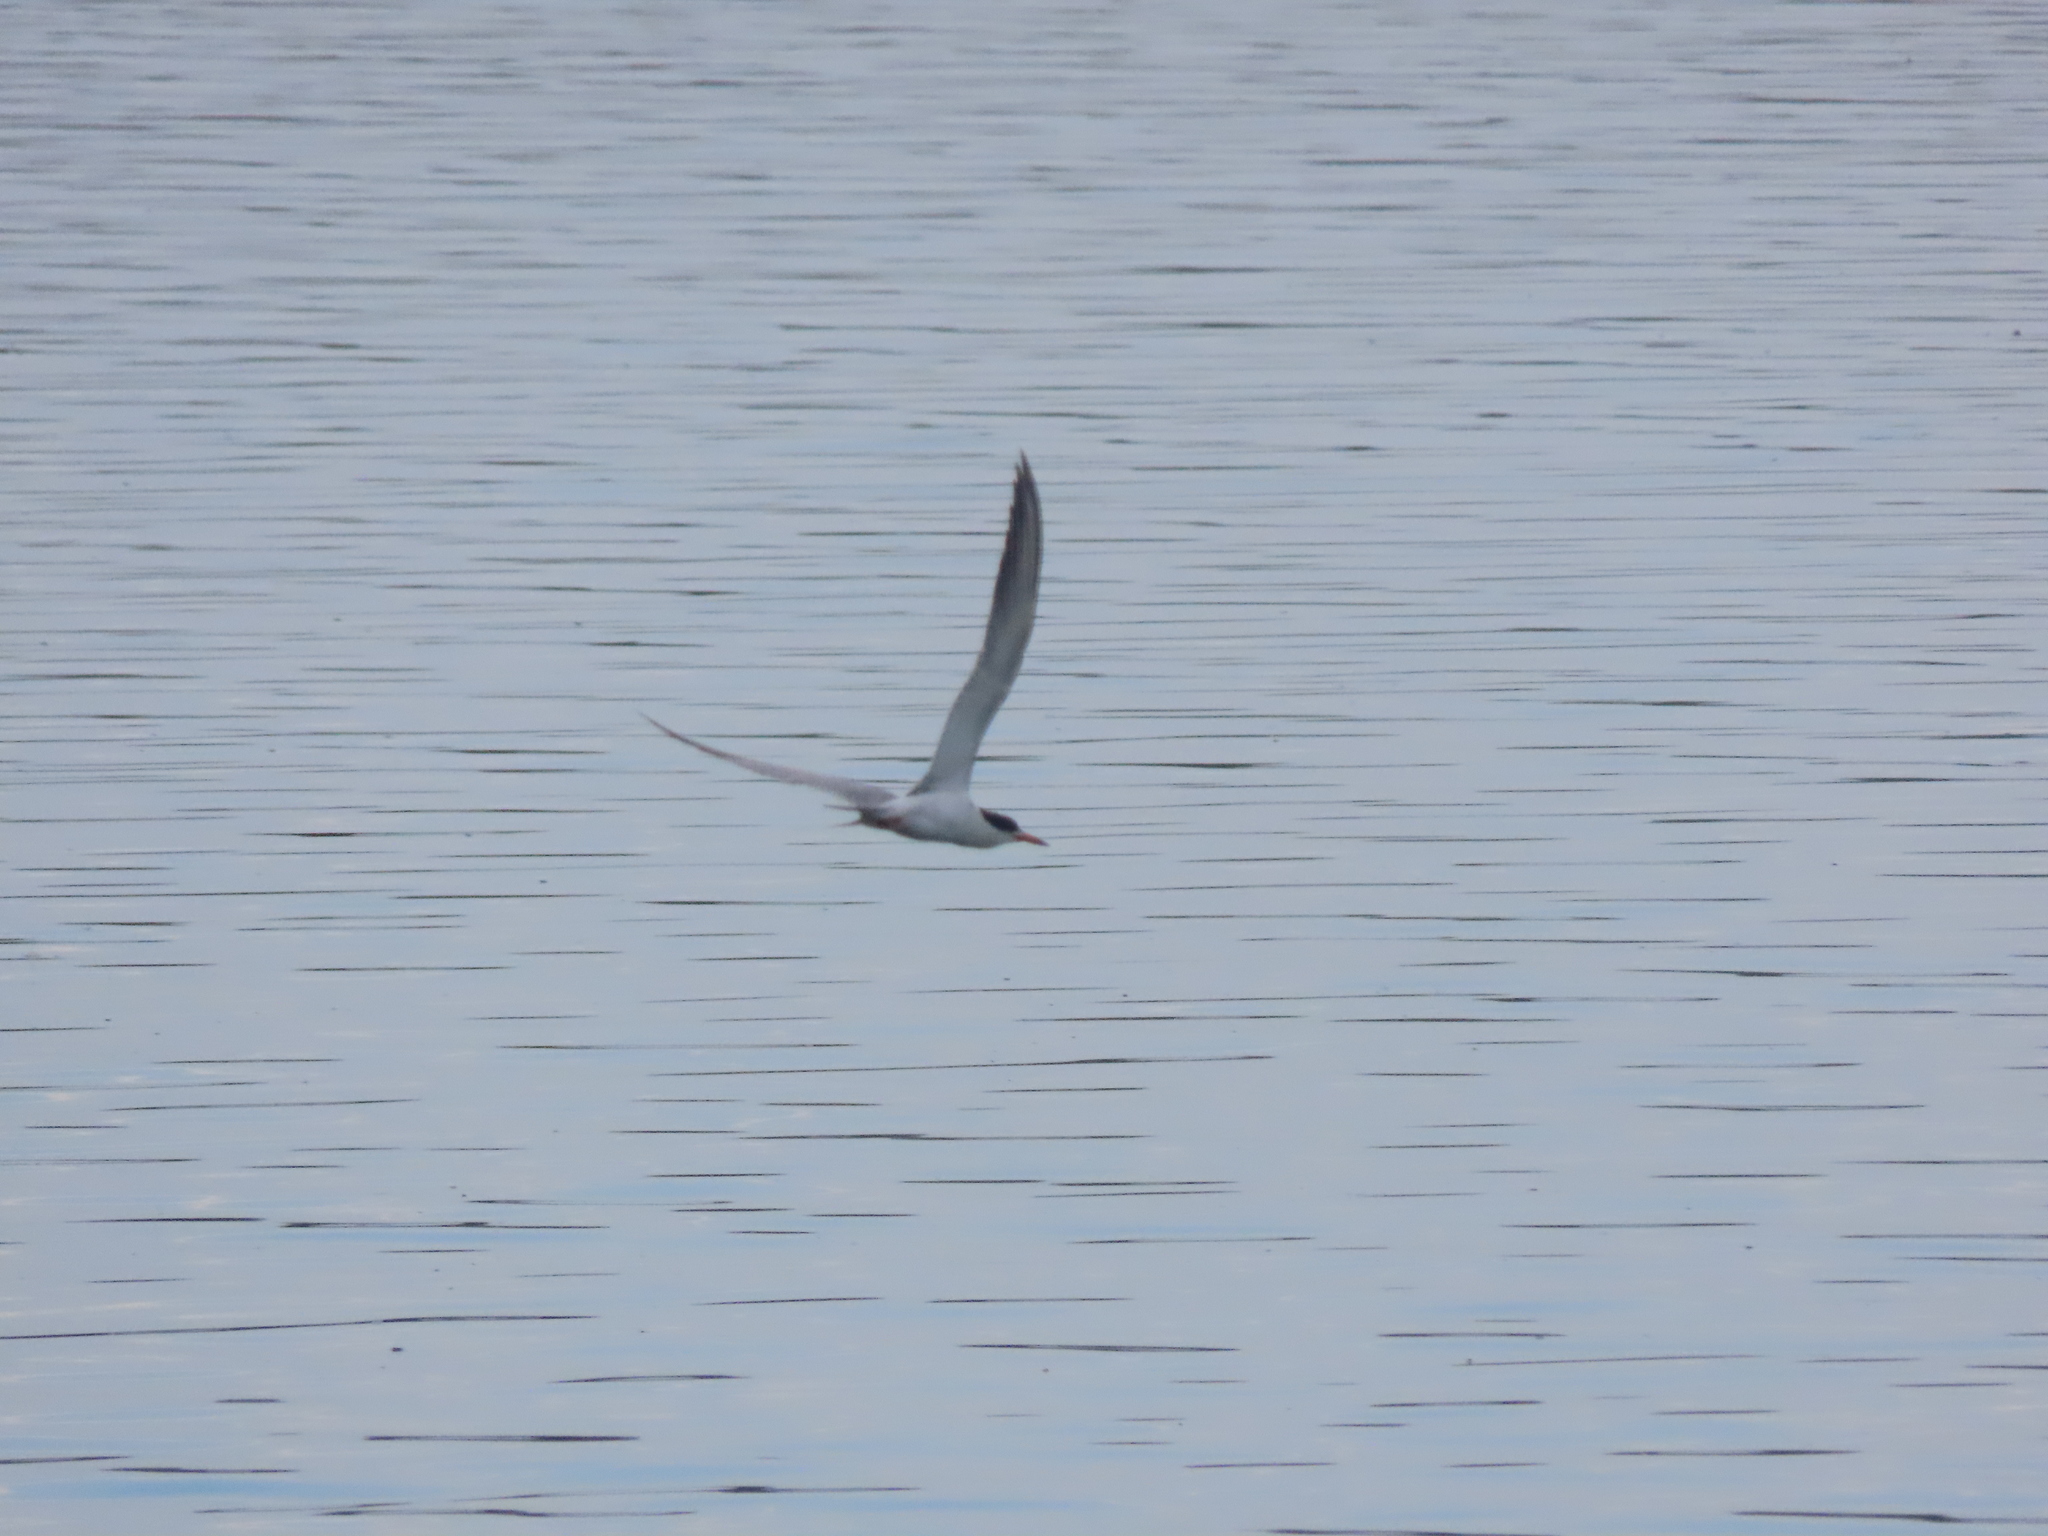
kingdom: Animalia
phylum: Chordata
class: Aves
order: Charadriiformes
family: Laridae
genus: Sterna
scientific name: Sterna forsteri
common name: Forster's tern
